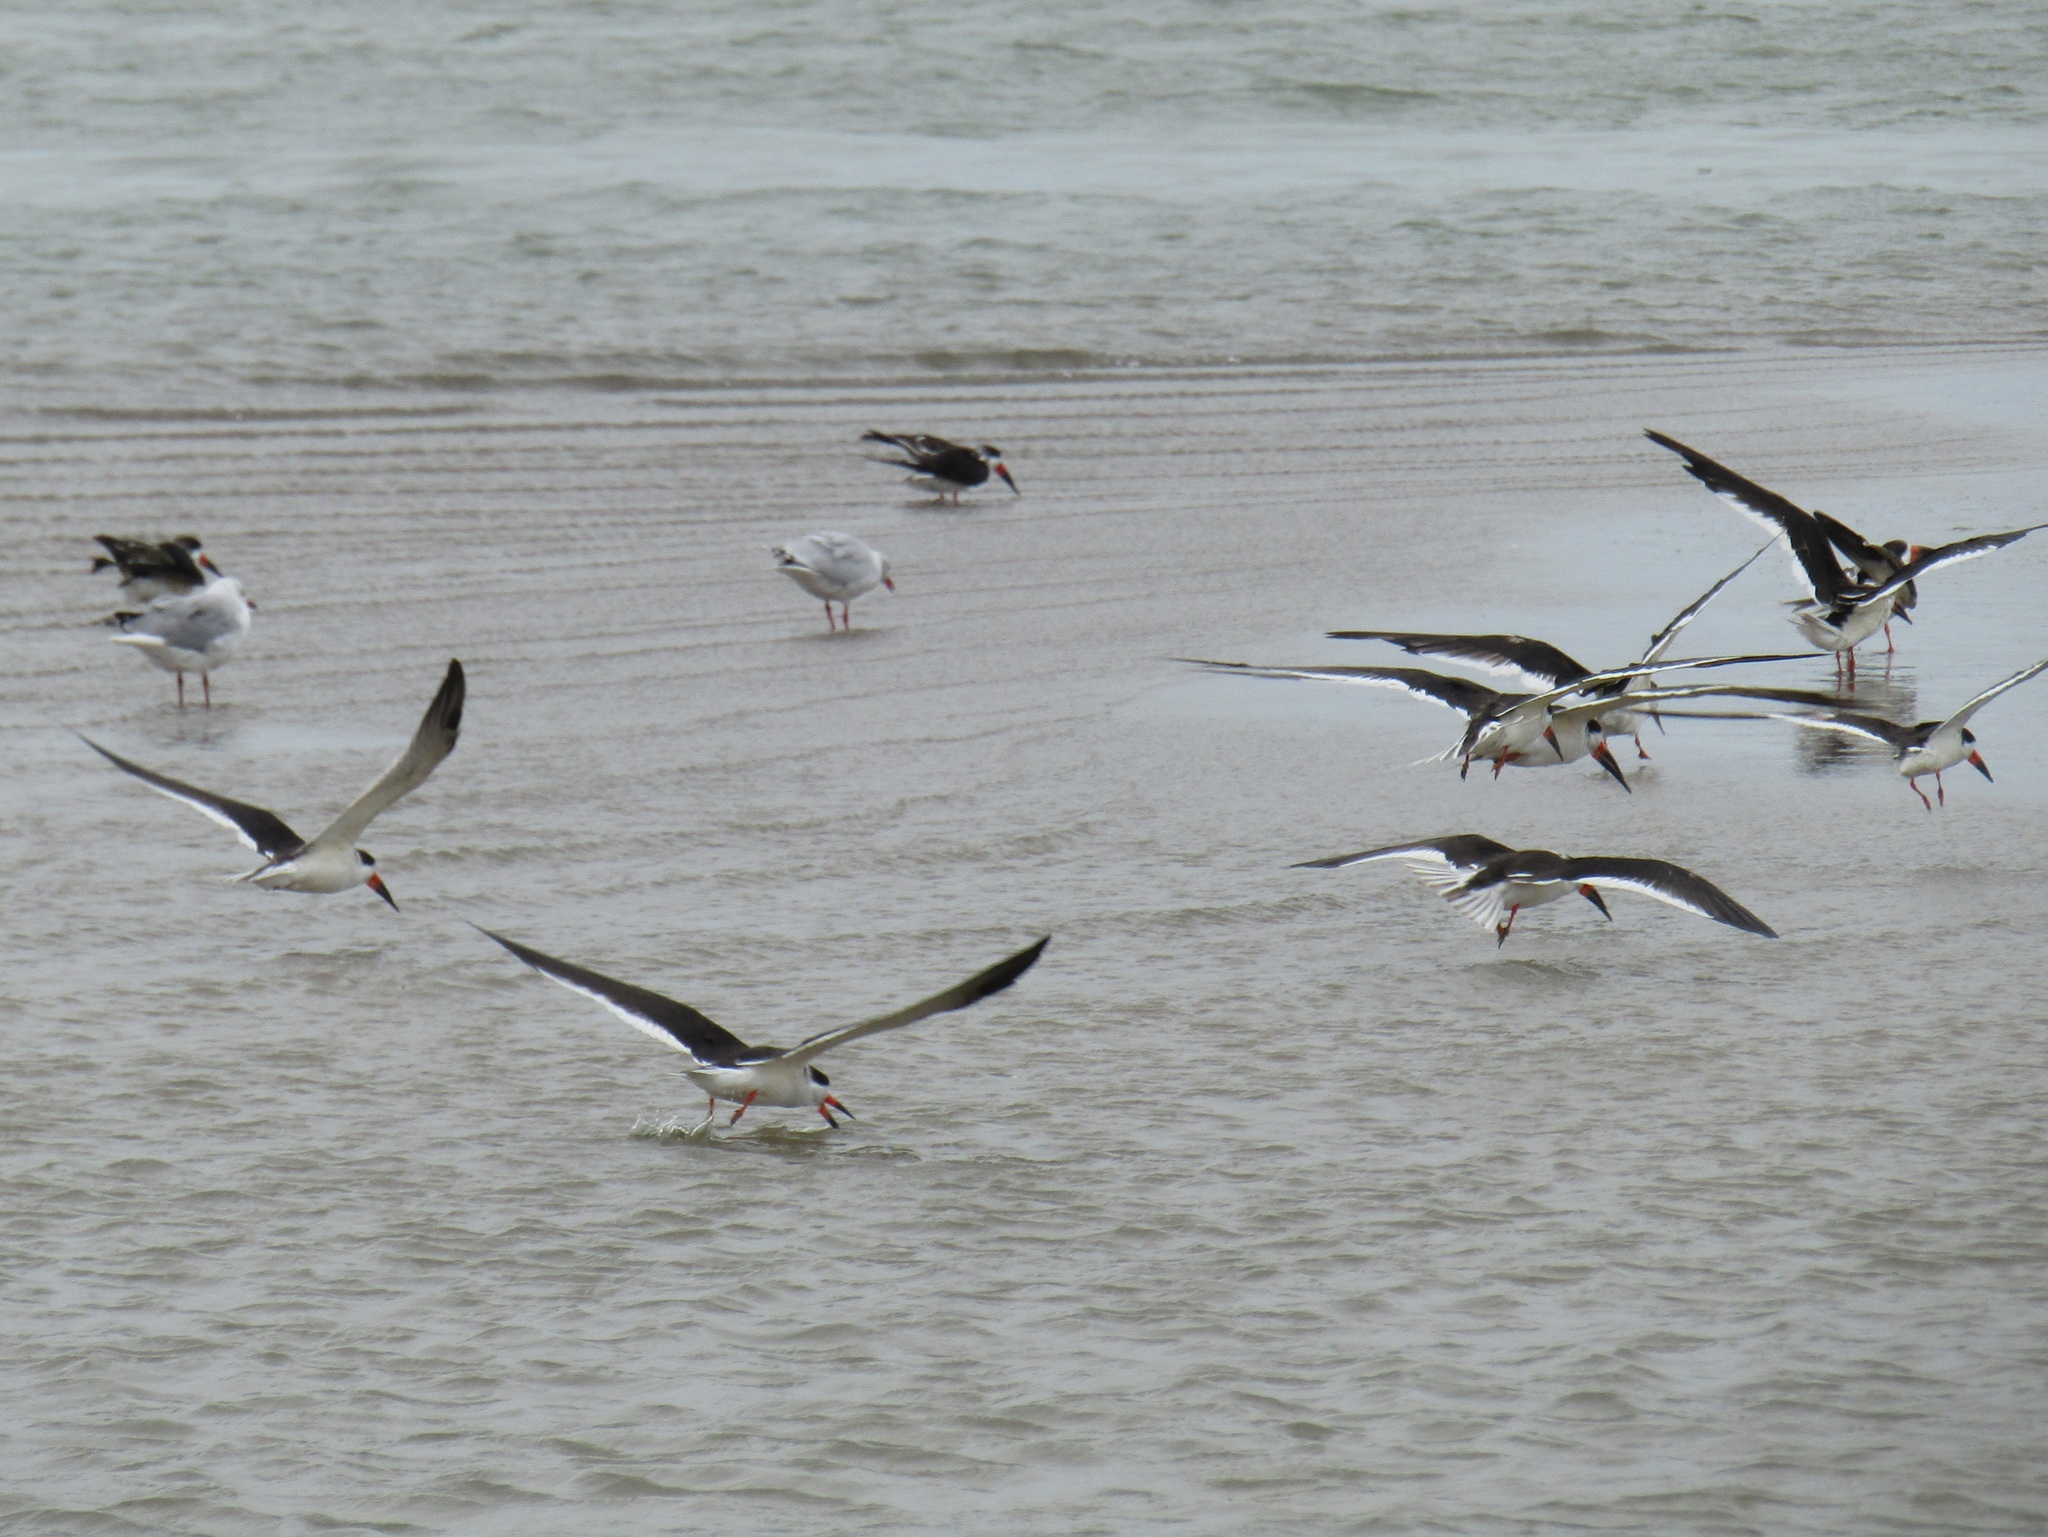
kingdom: Animalia
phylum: Chordata
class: Aves
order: Charadriiformes
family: Laridae
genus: Rynchops
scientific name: Rynchops niger
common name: Black skimmer
